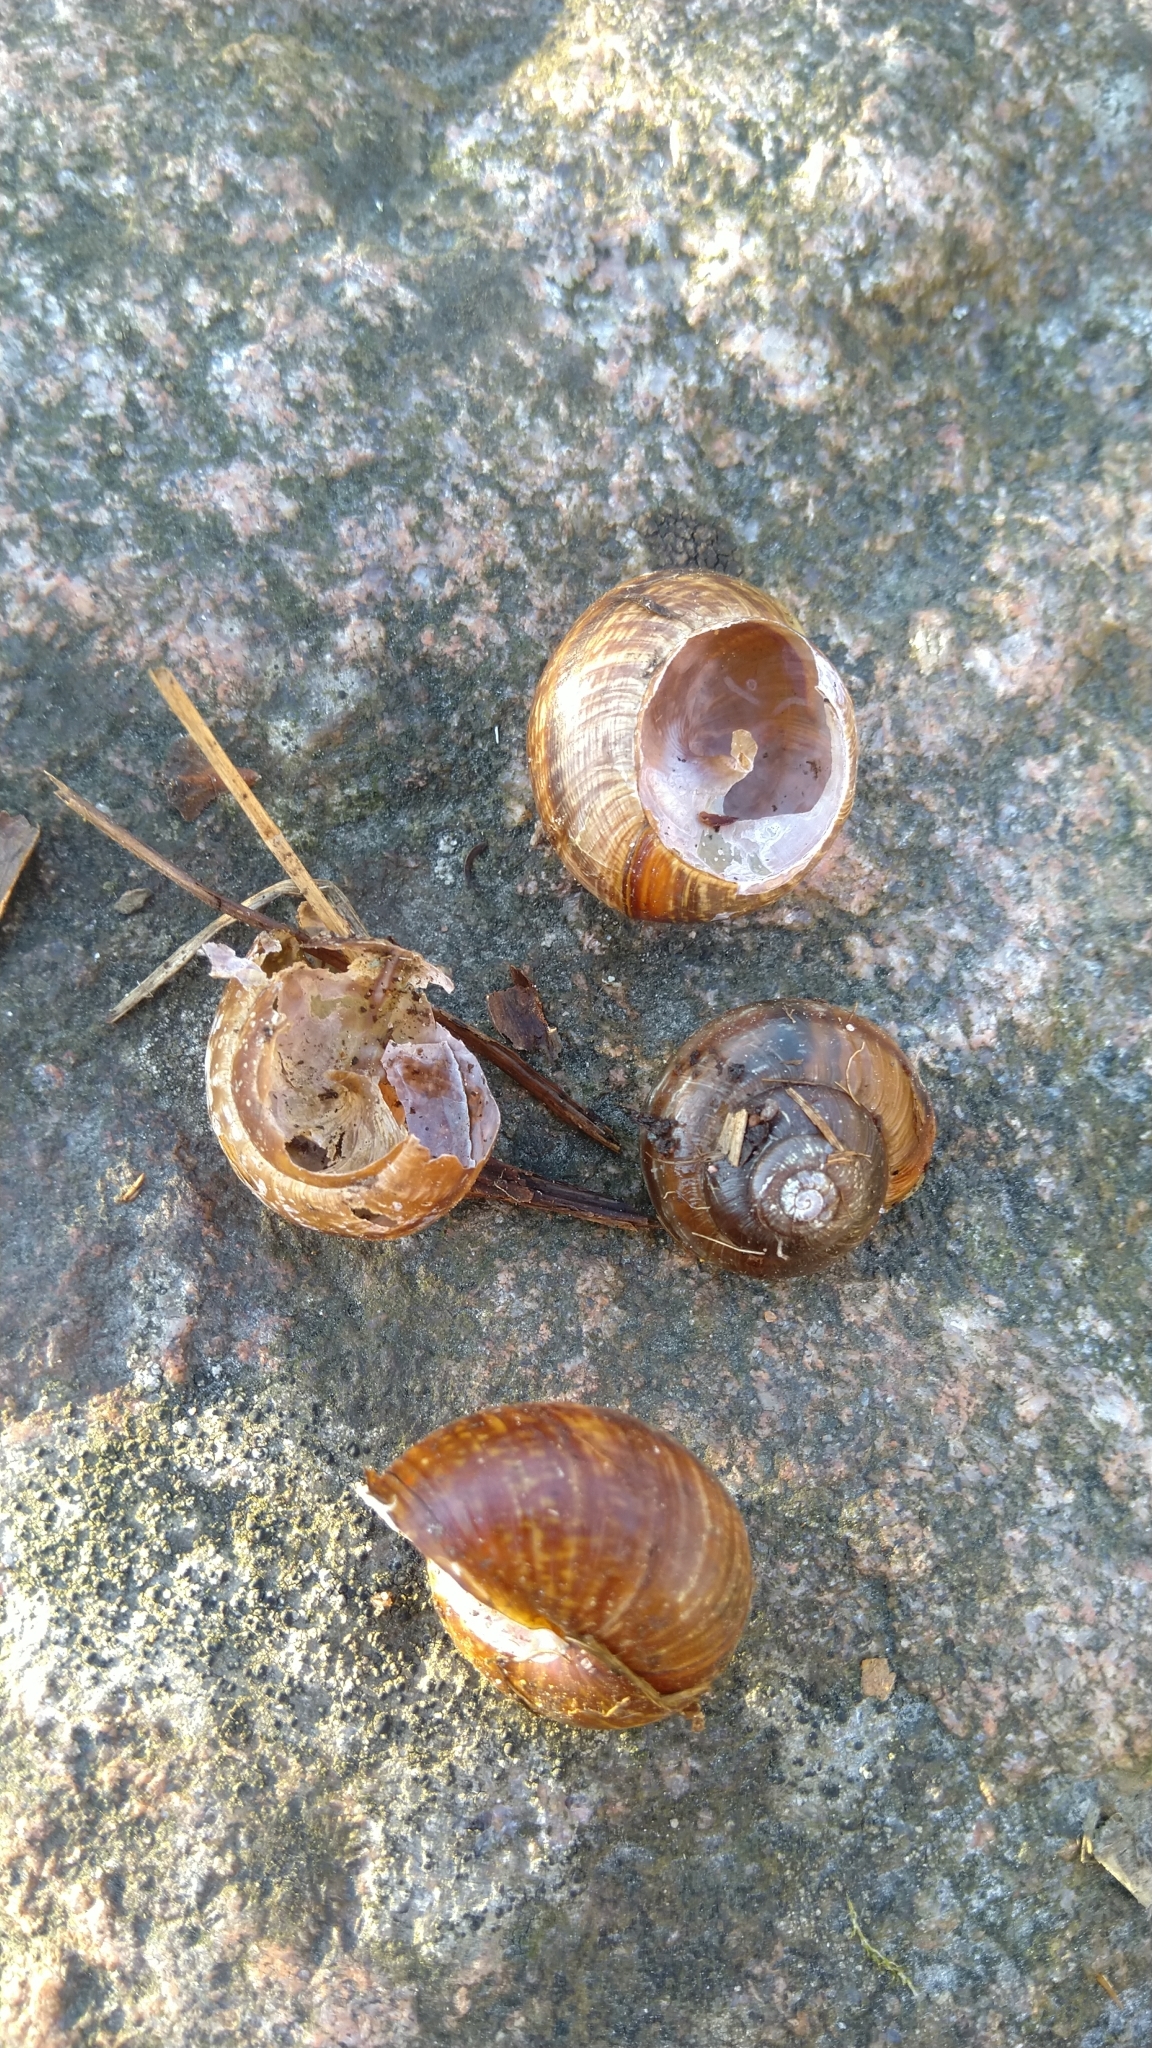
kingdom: Animalia
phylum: Mollusca
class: Gastropoda
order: Stylommatophora
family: Helicidae
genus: Arianta
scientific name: Arianta arbustorum
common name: Copse snail
